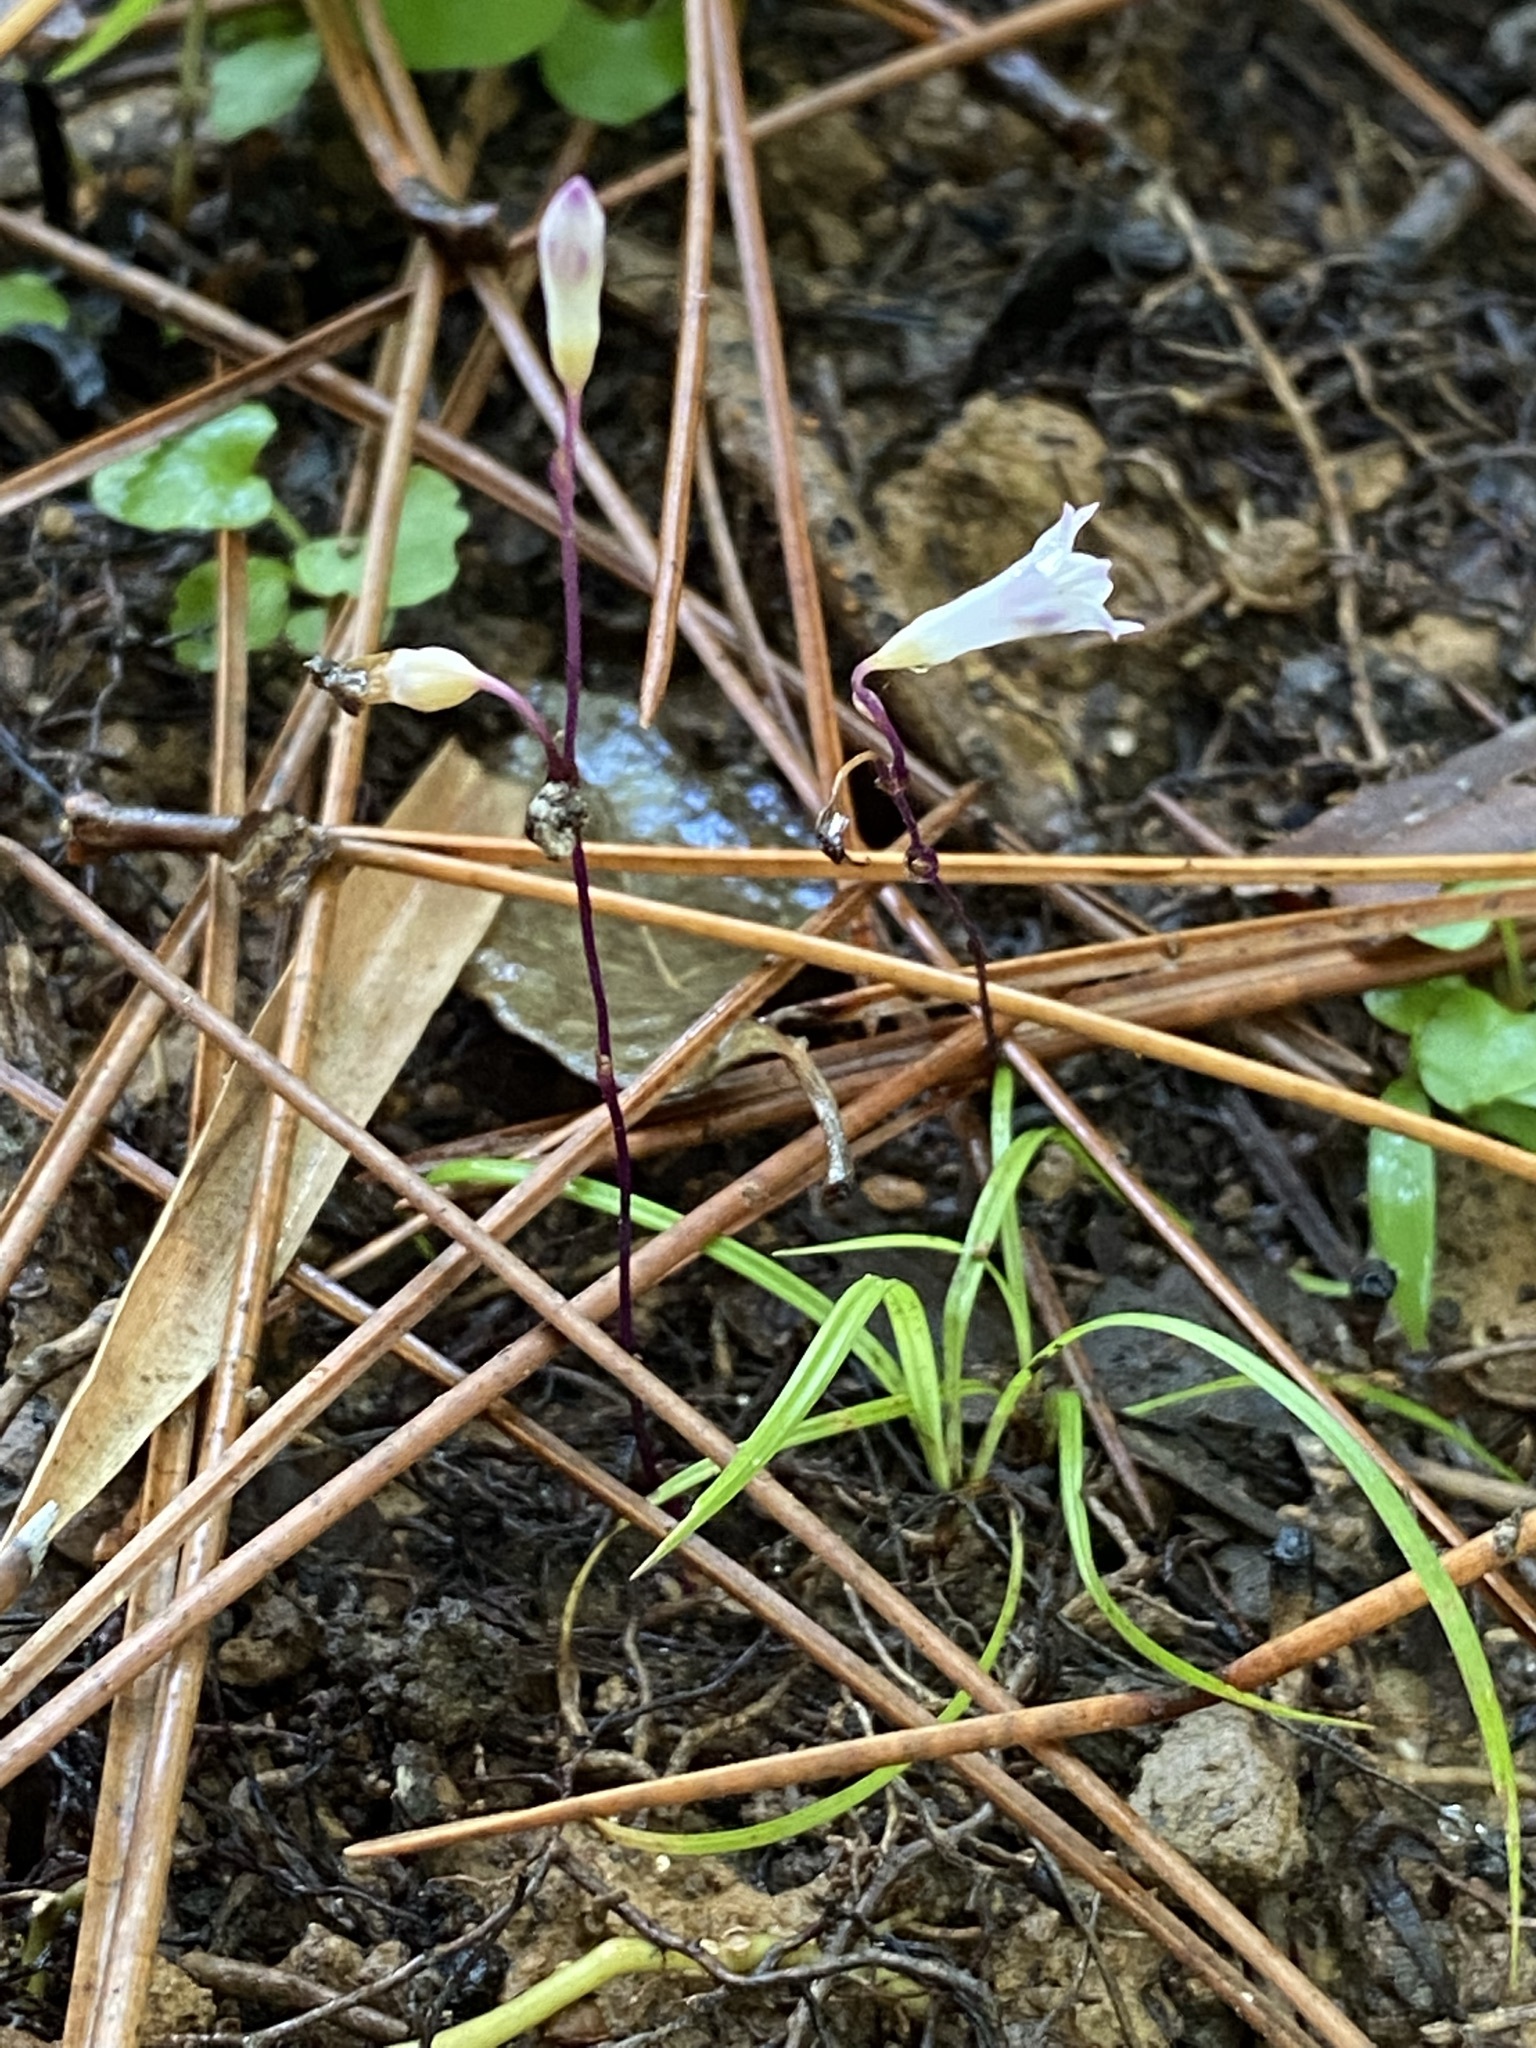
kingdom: Plantae
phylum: Tracheophyta
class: Liliopsida
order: Dioscoreales
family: Burmanniaceae
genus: Apteria
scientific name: Apteria aphylla
